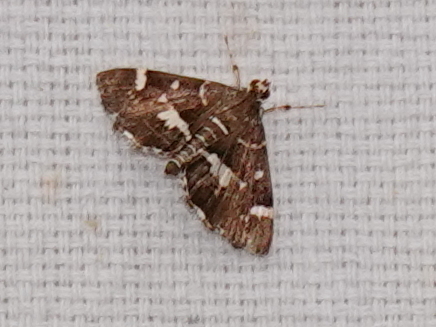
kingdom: Animalia
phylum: Arthropoda
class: Insecta
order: Lepidoptera
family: Crambidae
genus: Hymenia
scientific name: Hymenia perspectalis
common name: Spotted beet webworm
